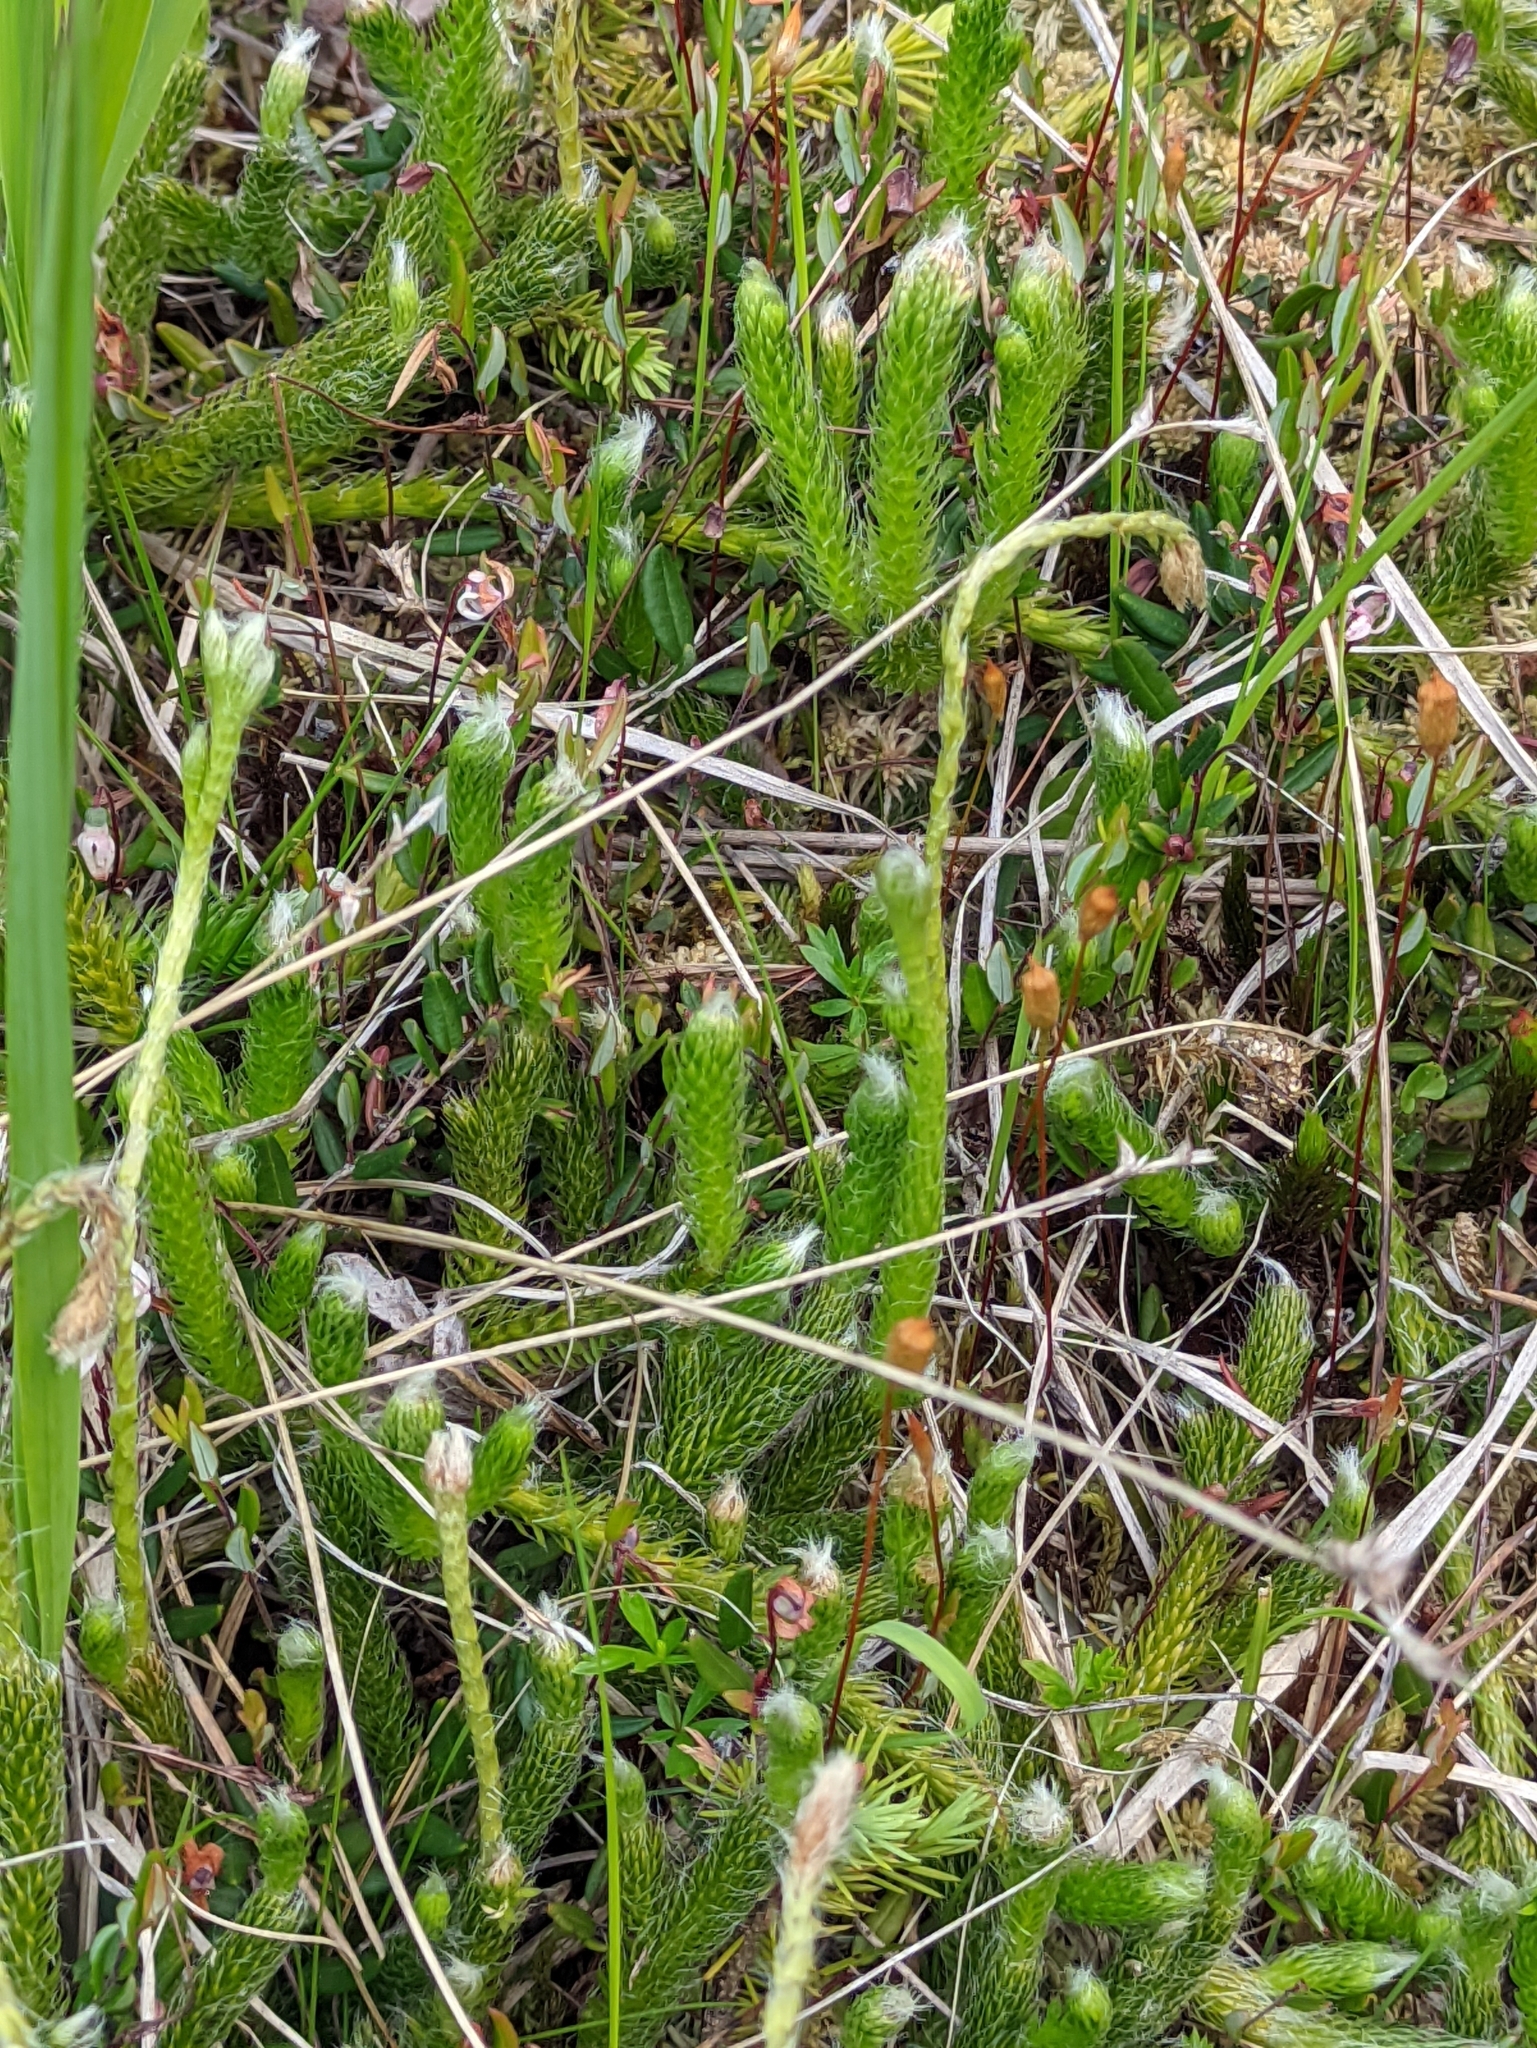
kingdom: Plantae
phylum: Tracheophyta
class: Lycopodiopsida
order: Lycopodiales
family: Lycopodiaceae
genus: Lycopodium
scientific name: Lycopodium clavatum
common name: Stag's-horn clubmoss
